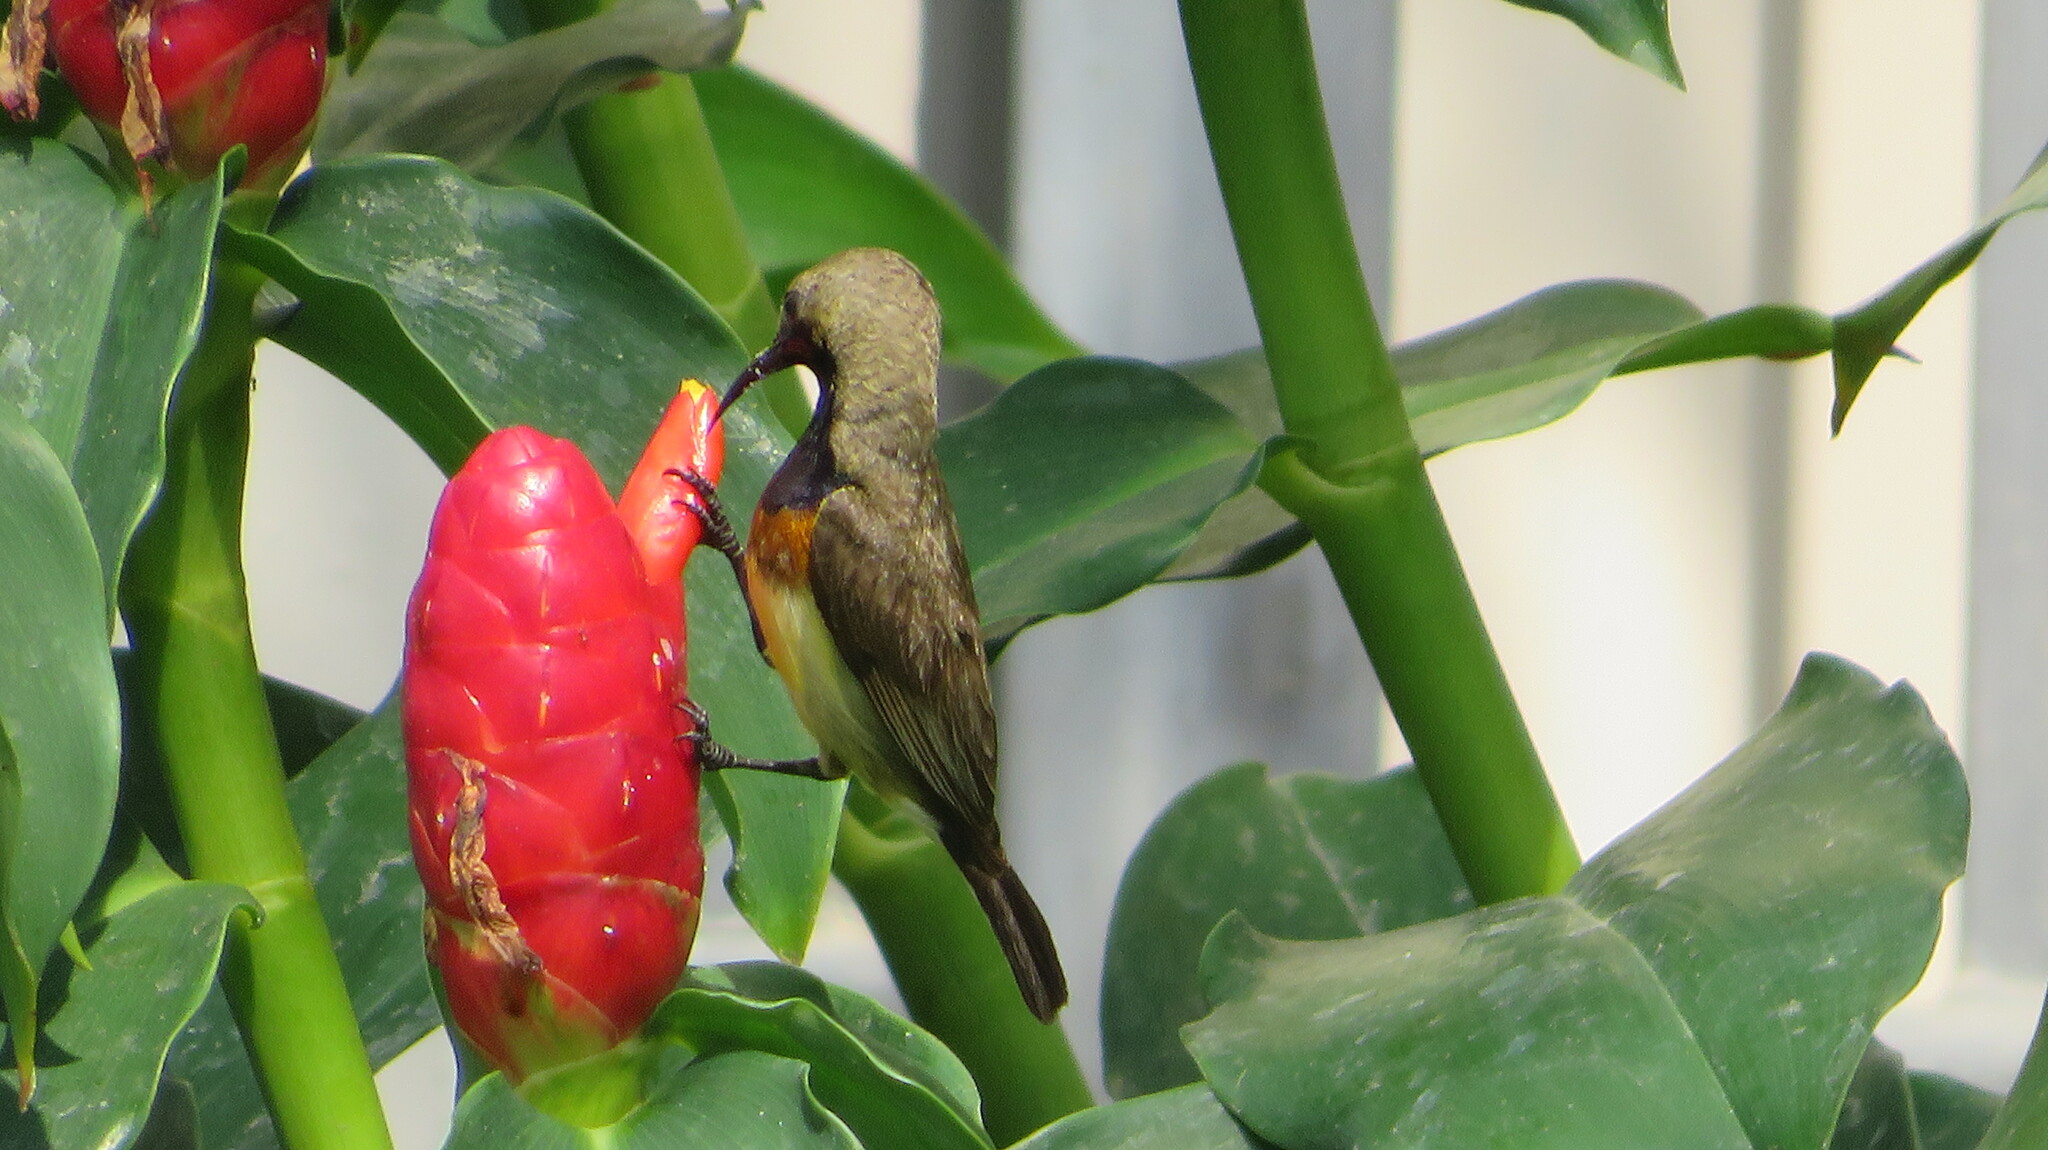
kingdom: Animalia
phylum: Chordata
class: Aves
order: Passeriformes
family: Nectariniidae
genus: Cinnyris
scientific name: Cinnyris
